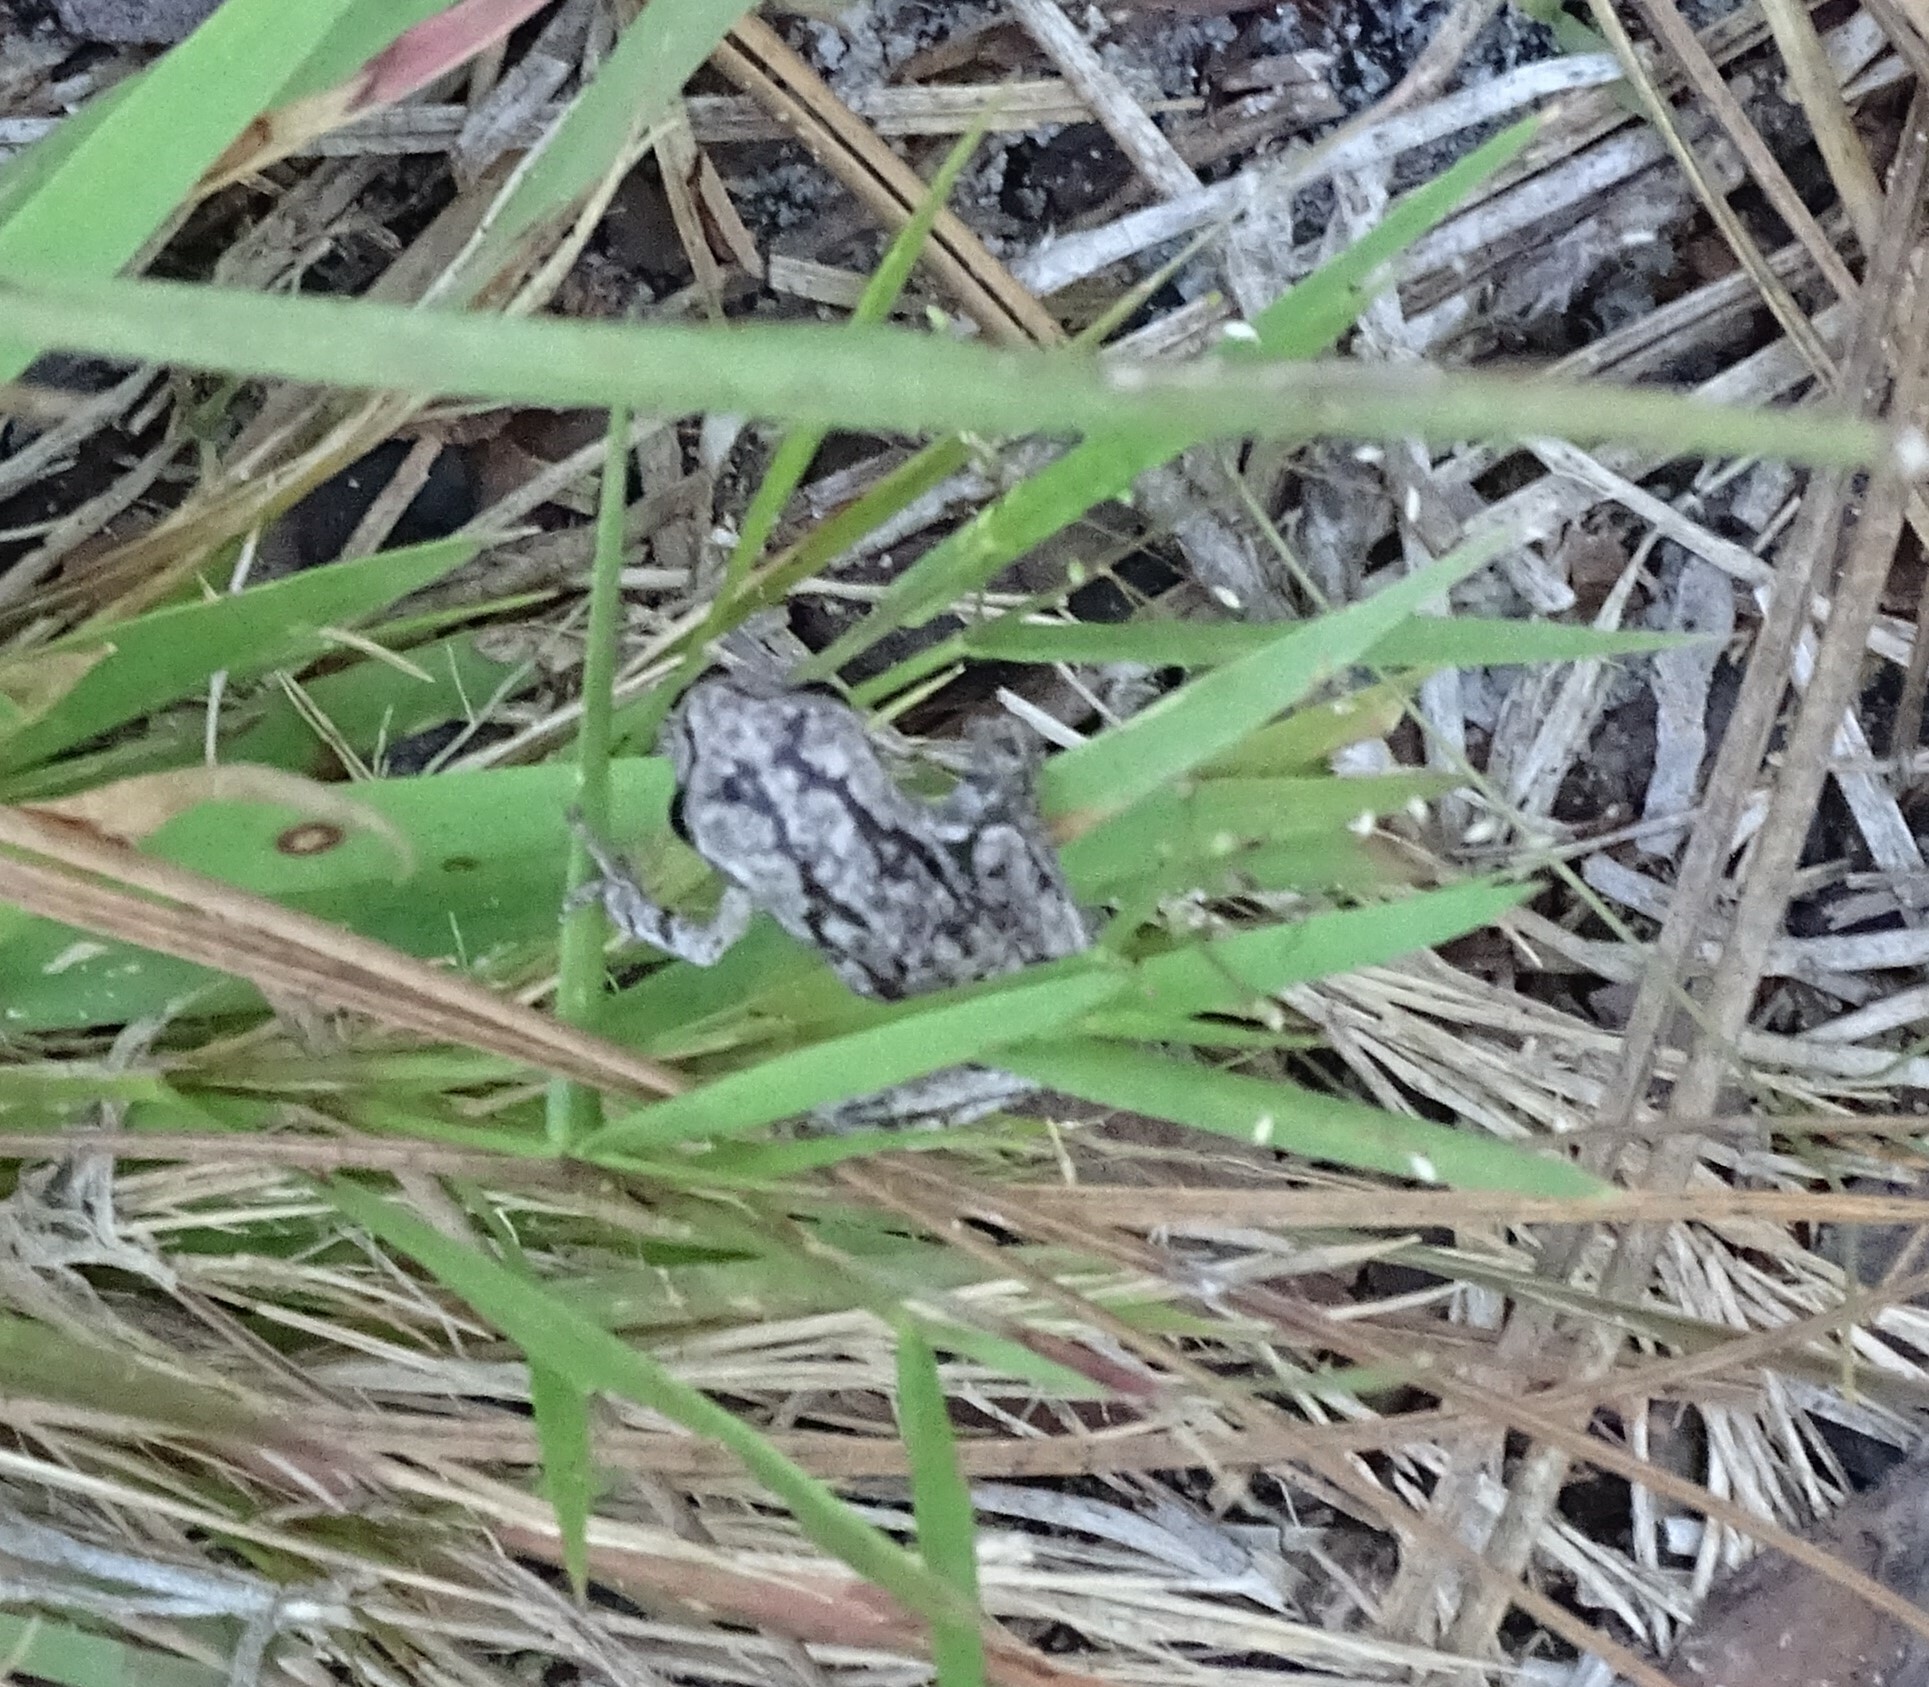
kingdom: Animalia
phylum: Chordata
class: Amphibia
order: Anura
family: Hylidae
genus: Hyla
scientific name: Hyla femoralis
